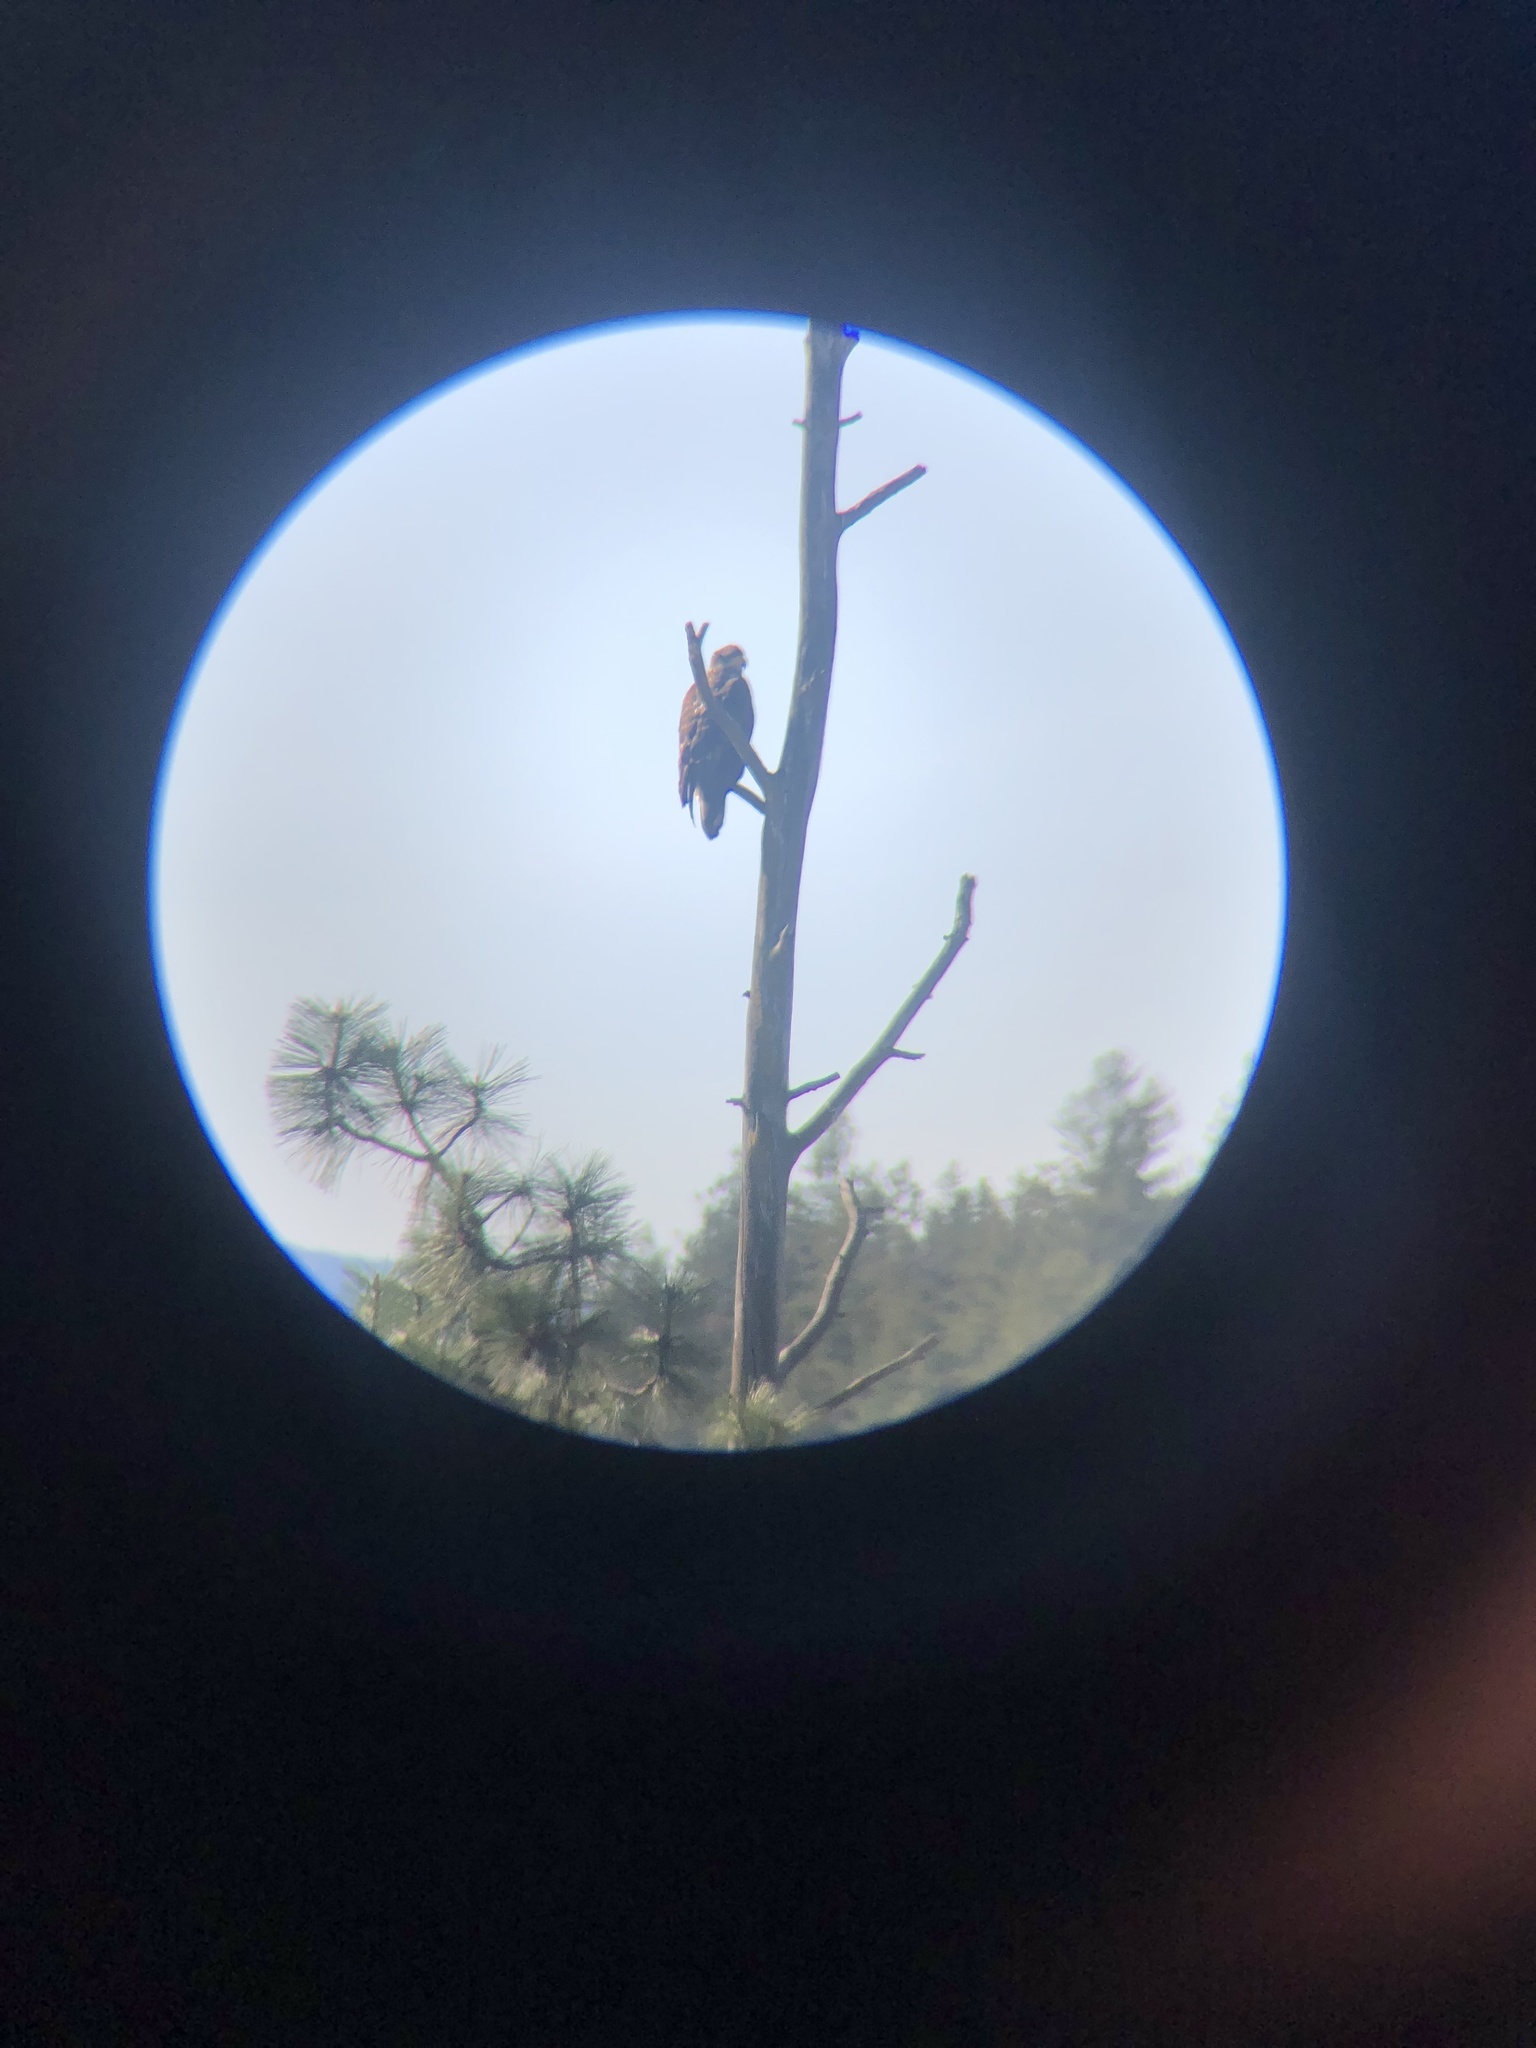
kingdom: Animalia
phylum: Chordata
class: Aves
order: Accipitriformes
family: Accipitridae
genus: Haliaeetus
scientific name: Haliaeetus leucocephalus
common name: Bald eagle
